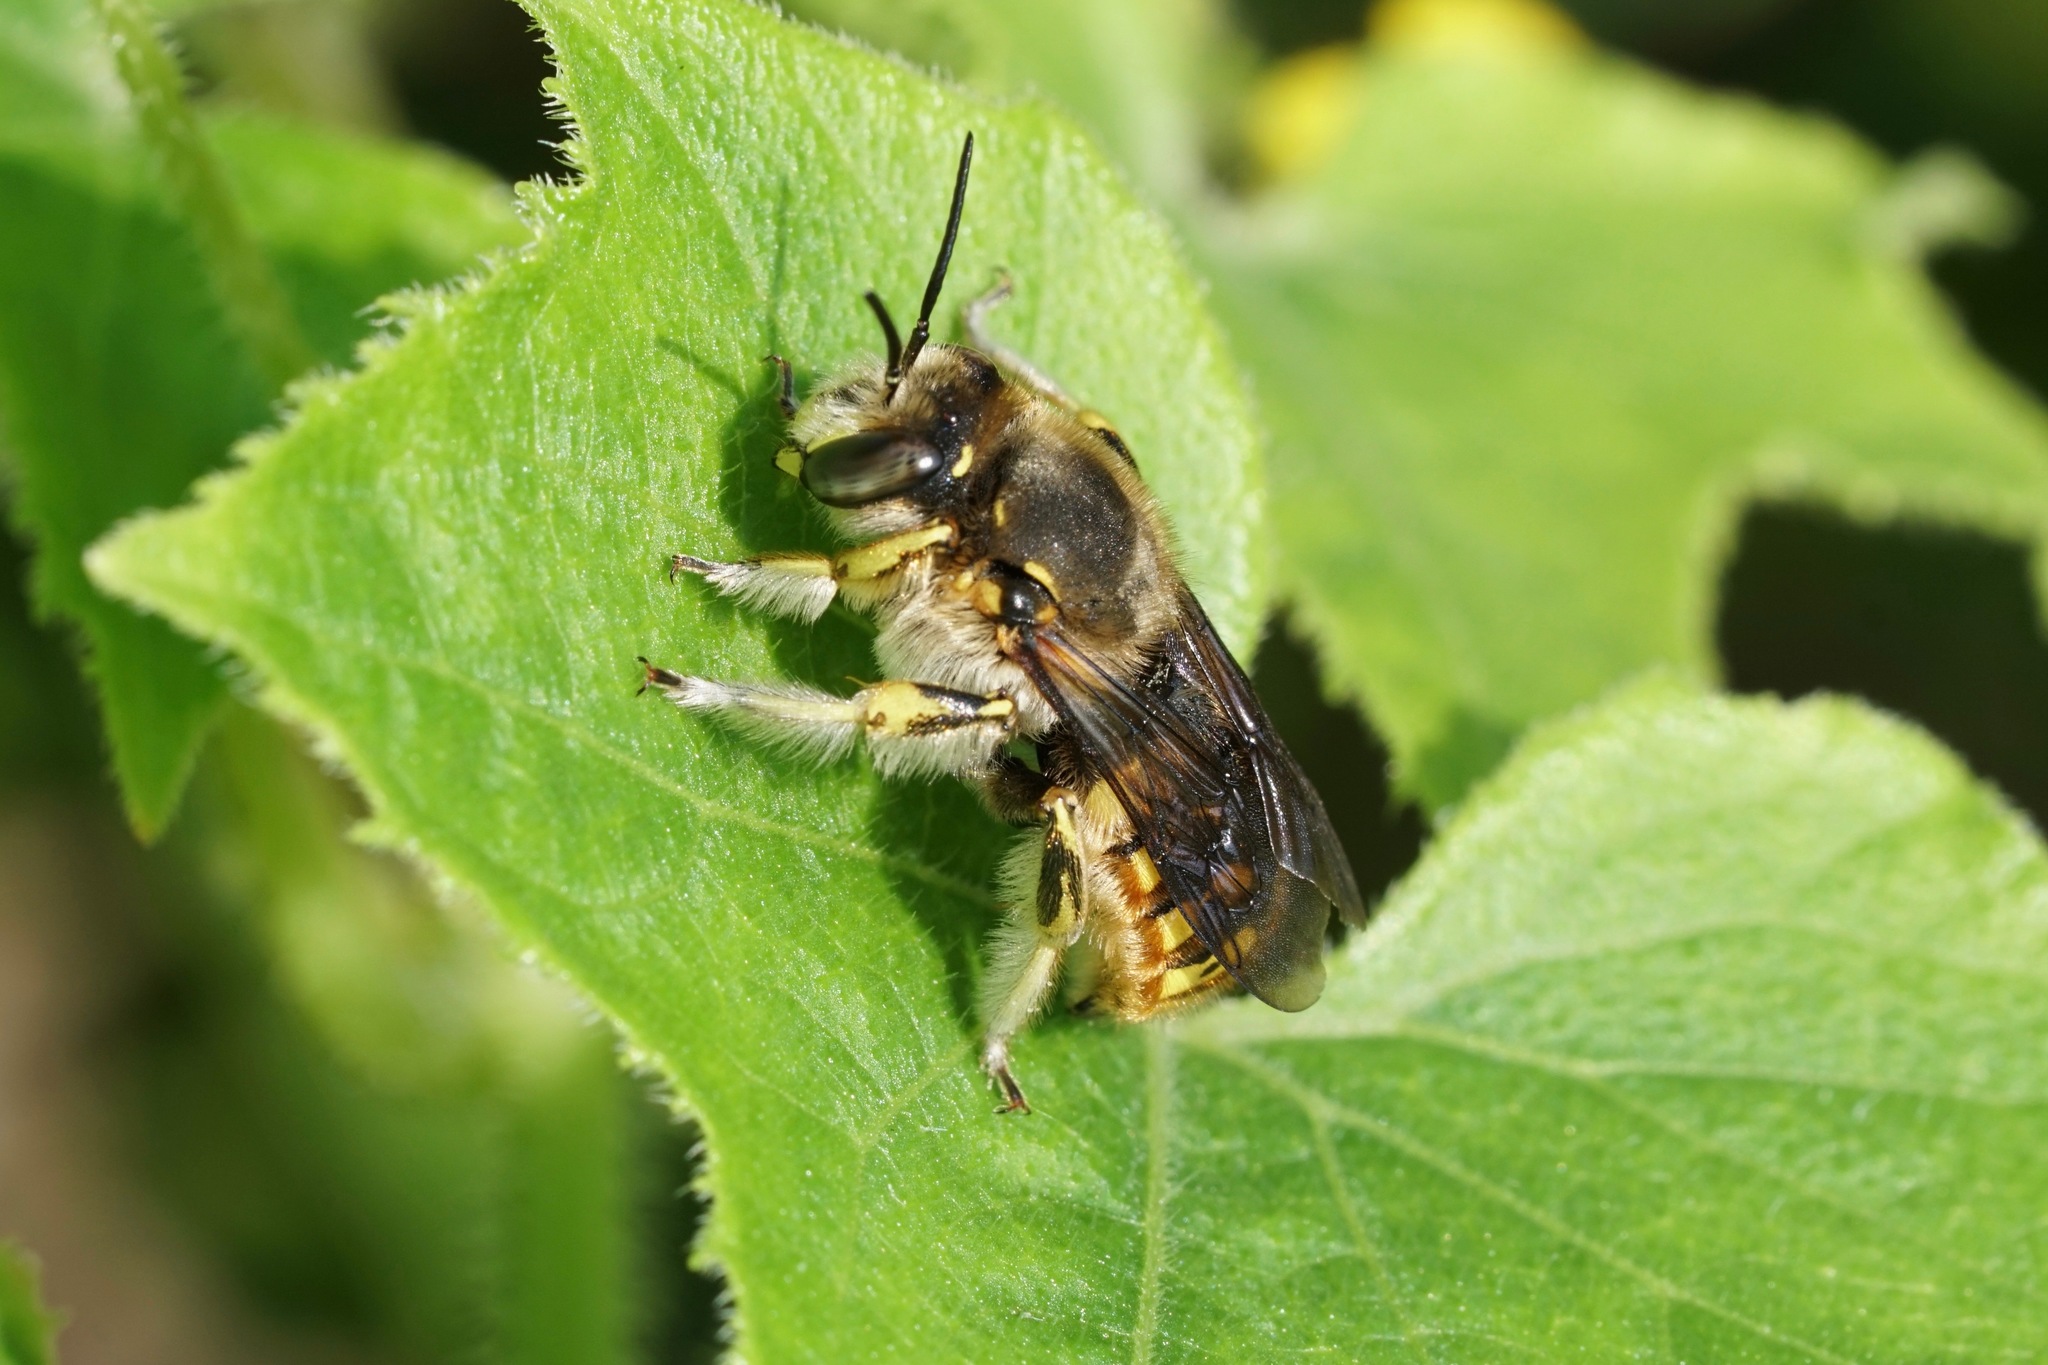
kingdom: Animalia
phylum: Arthropoda
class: Insecta
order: Hymenoptera
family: Megachilidae
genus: Anthidium
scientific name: Anthidium manicatum
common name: Wool carder bee
